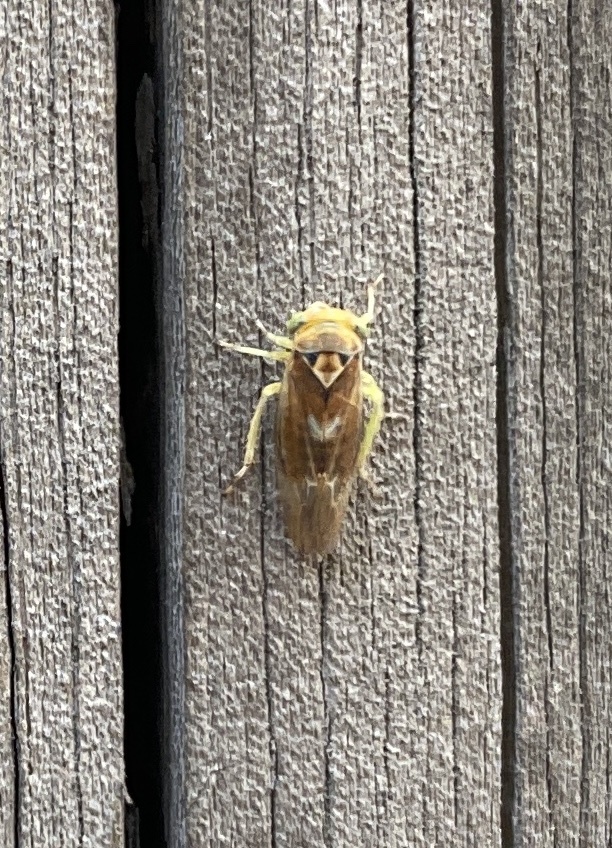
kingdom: Animalia
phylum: Arthropoda
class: Insecta
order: Hemiptera
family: Cicadellidae
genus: Populicerus
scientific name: Populicerus laminatus
